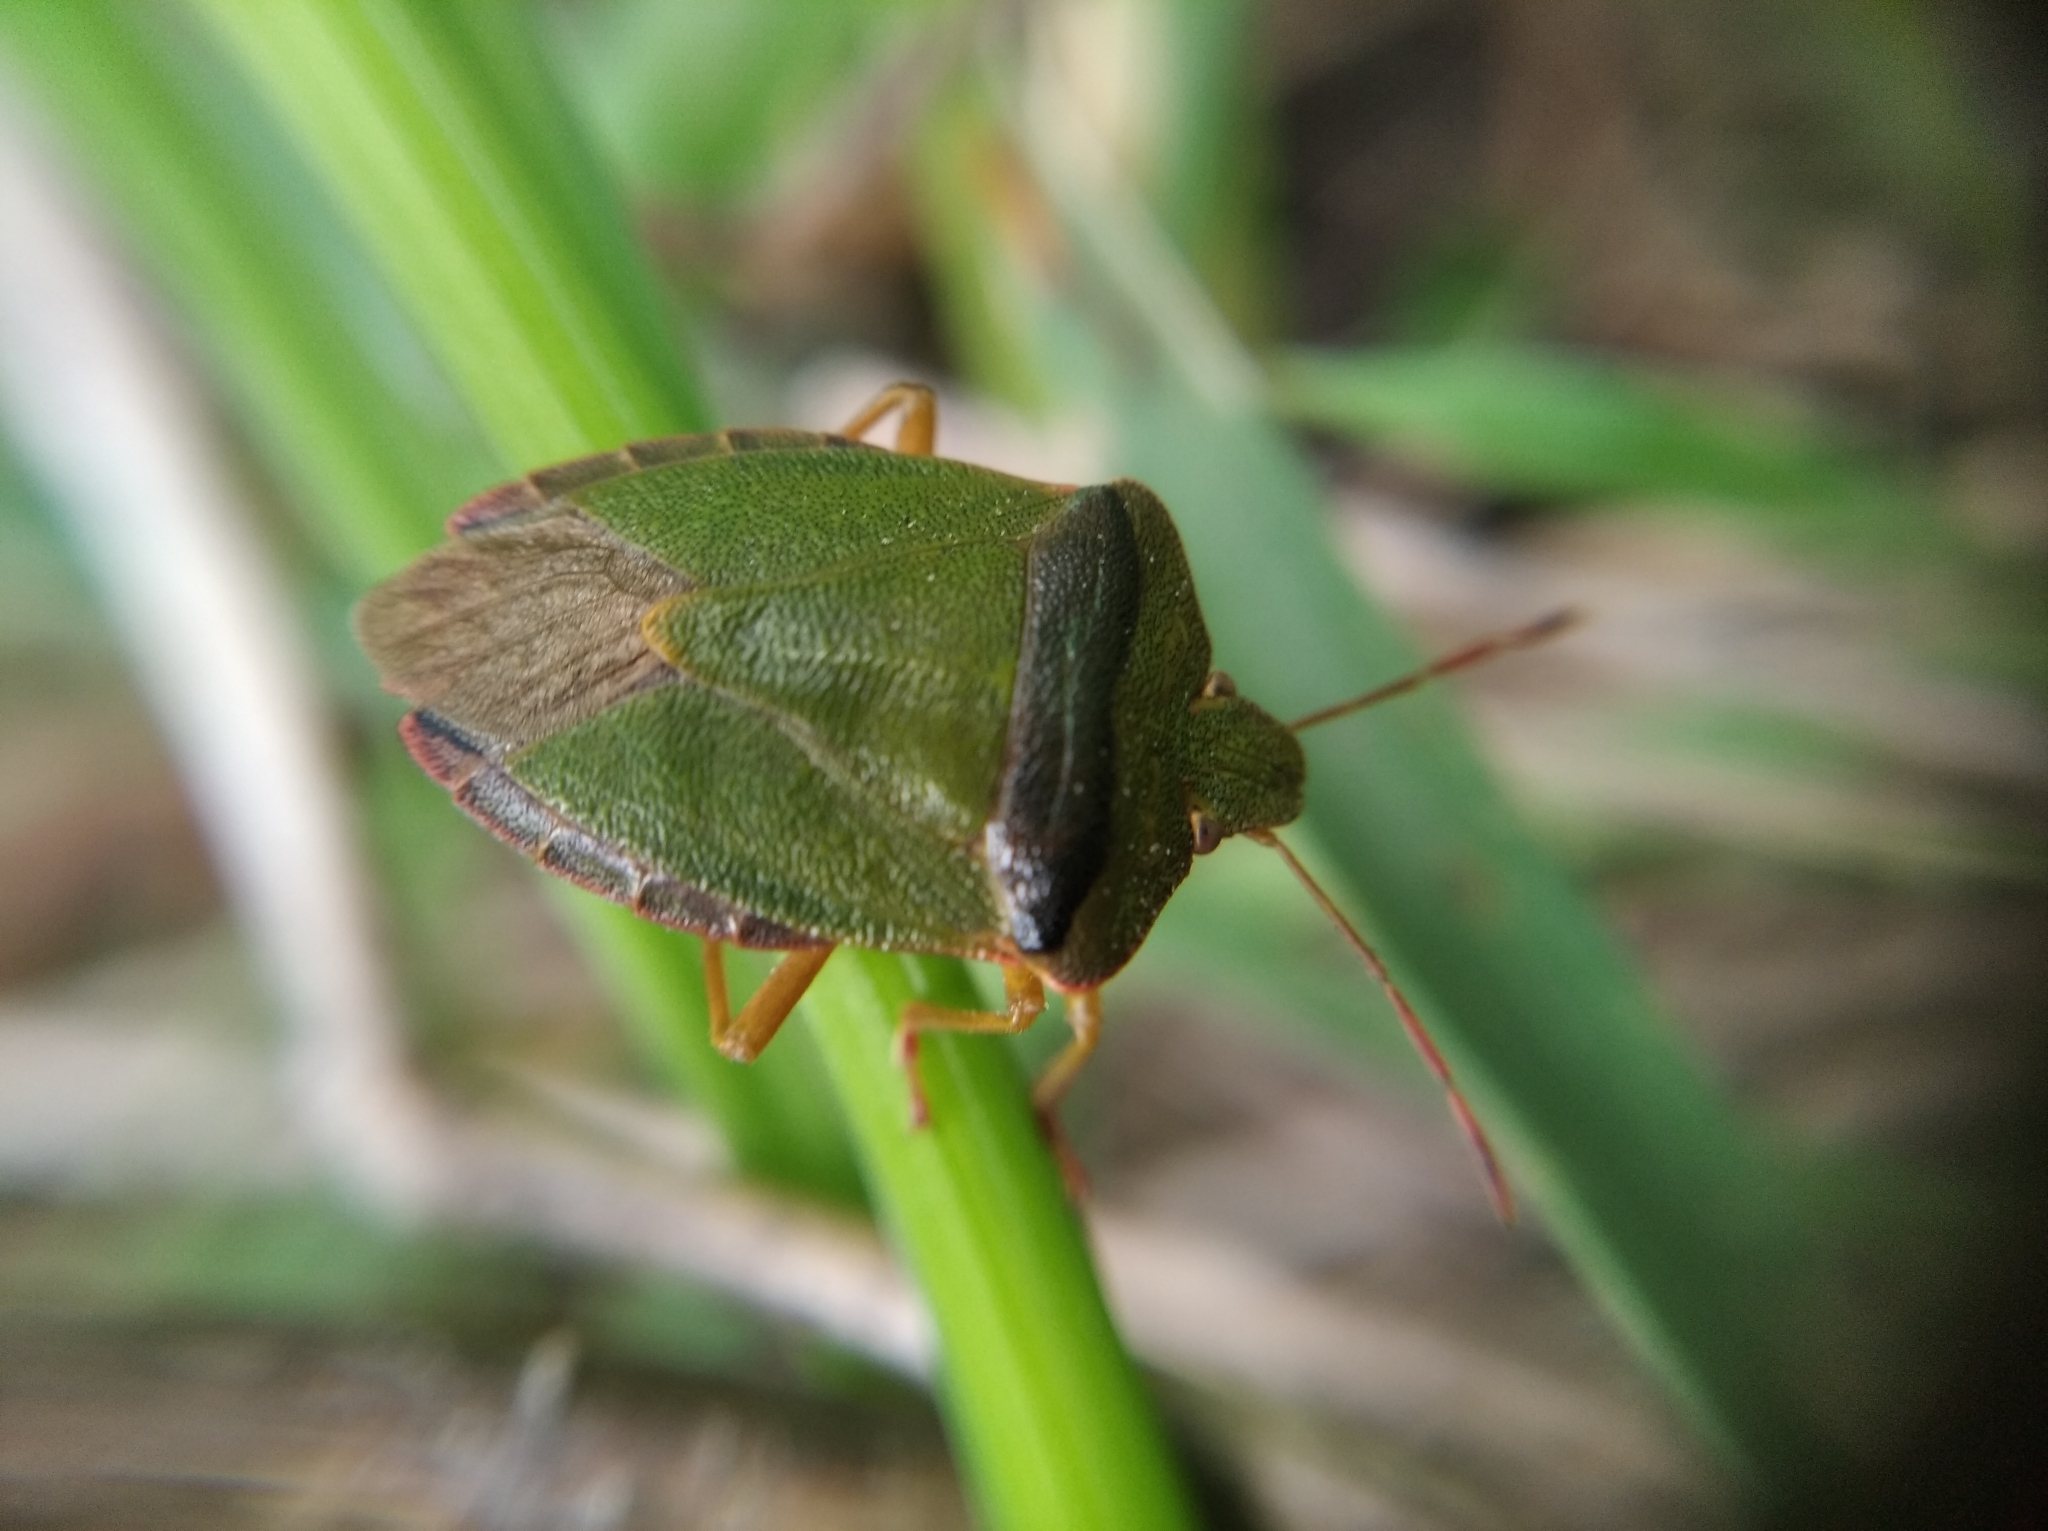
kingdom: Animalia
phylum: Arthropoda
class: Insecta
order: Hemiptera
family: Pentatomidae
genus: Palomena
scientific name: Palomena prasina
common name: Green shieldbug
